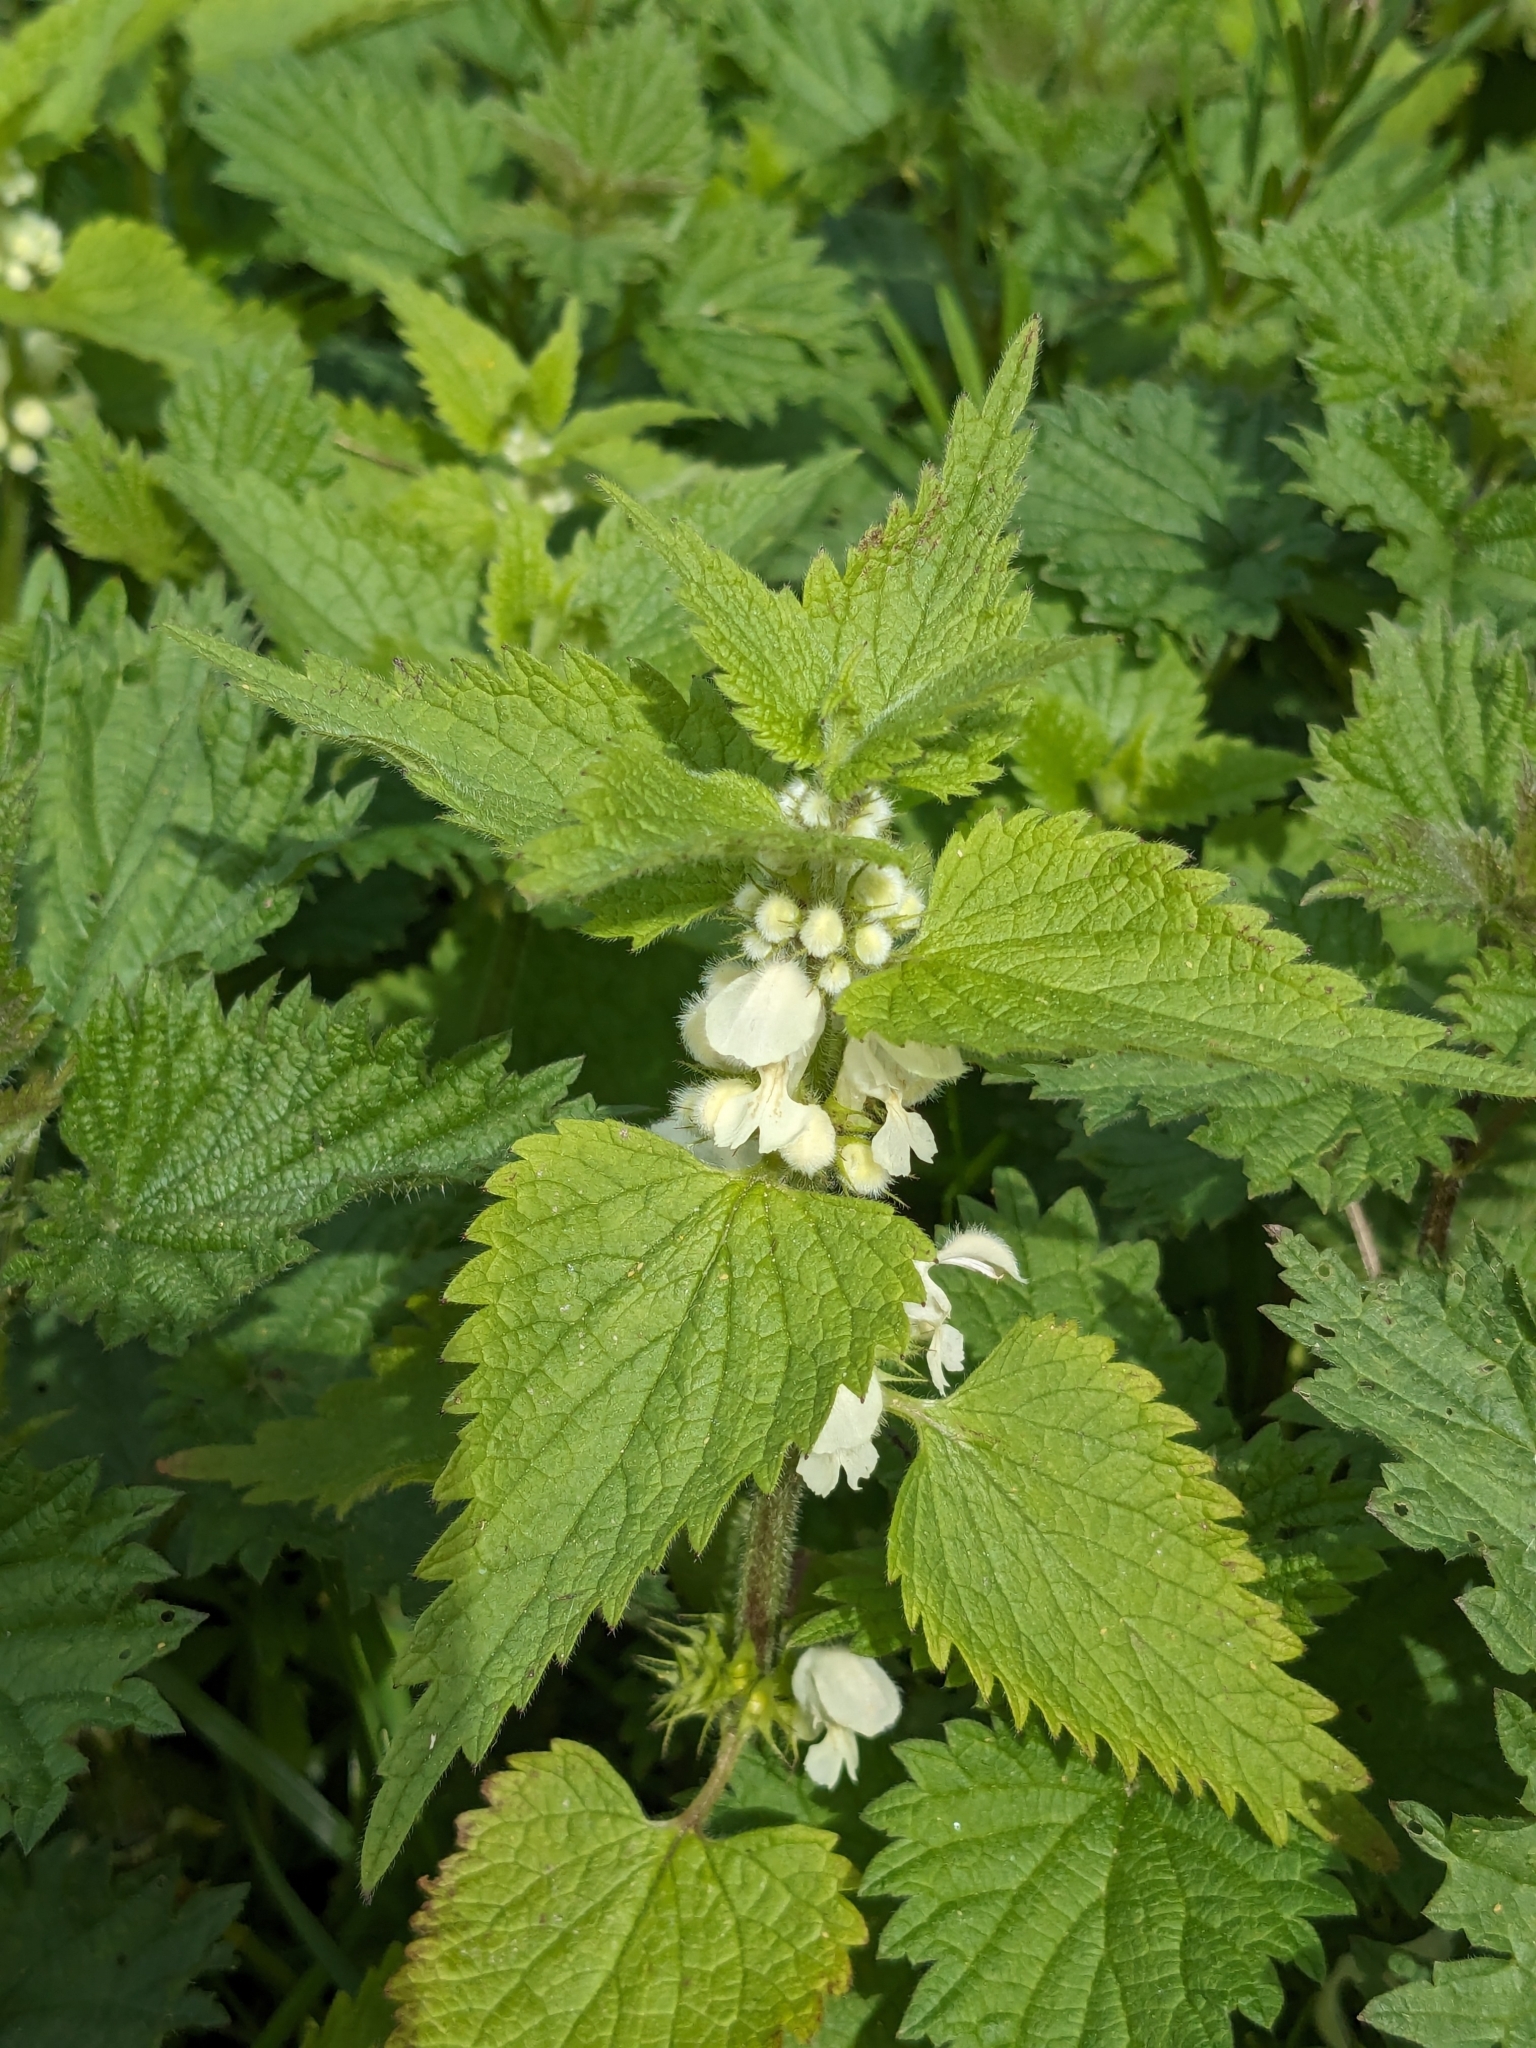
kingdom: Plantae
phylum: Tracheophyta
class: Magnoliopsida
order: Lamiales
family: Lamiaceae
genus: Lamium
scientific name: Lamium album
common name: White dead-nettle
